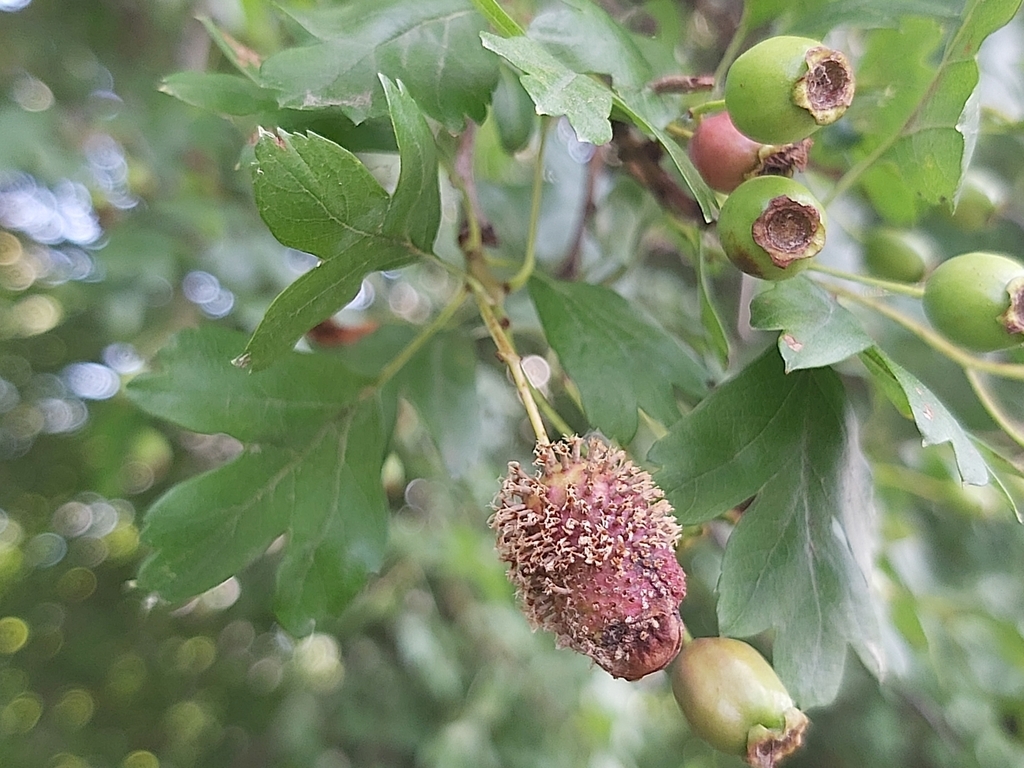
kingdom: Plantae
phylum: Tracheophyta
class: Magnoliopsida
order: Rosales
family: Rosaceae
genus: Crataegus
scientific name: Crataegus monogyna
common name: Hawthorn
